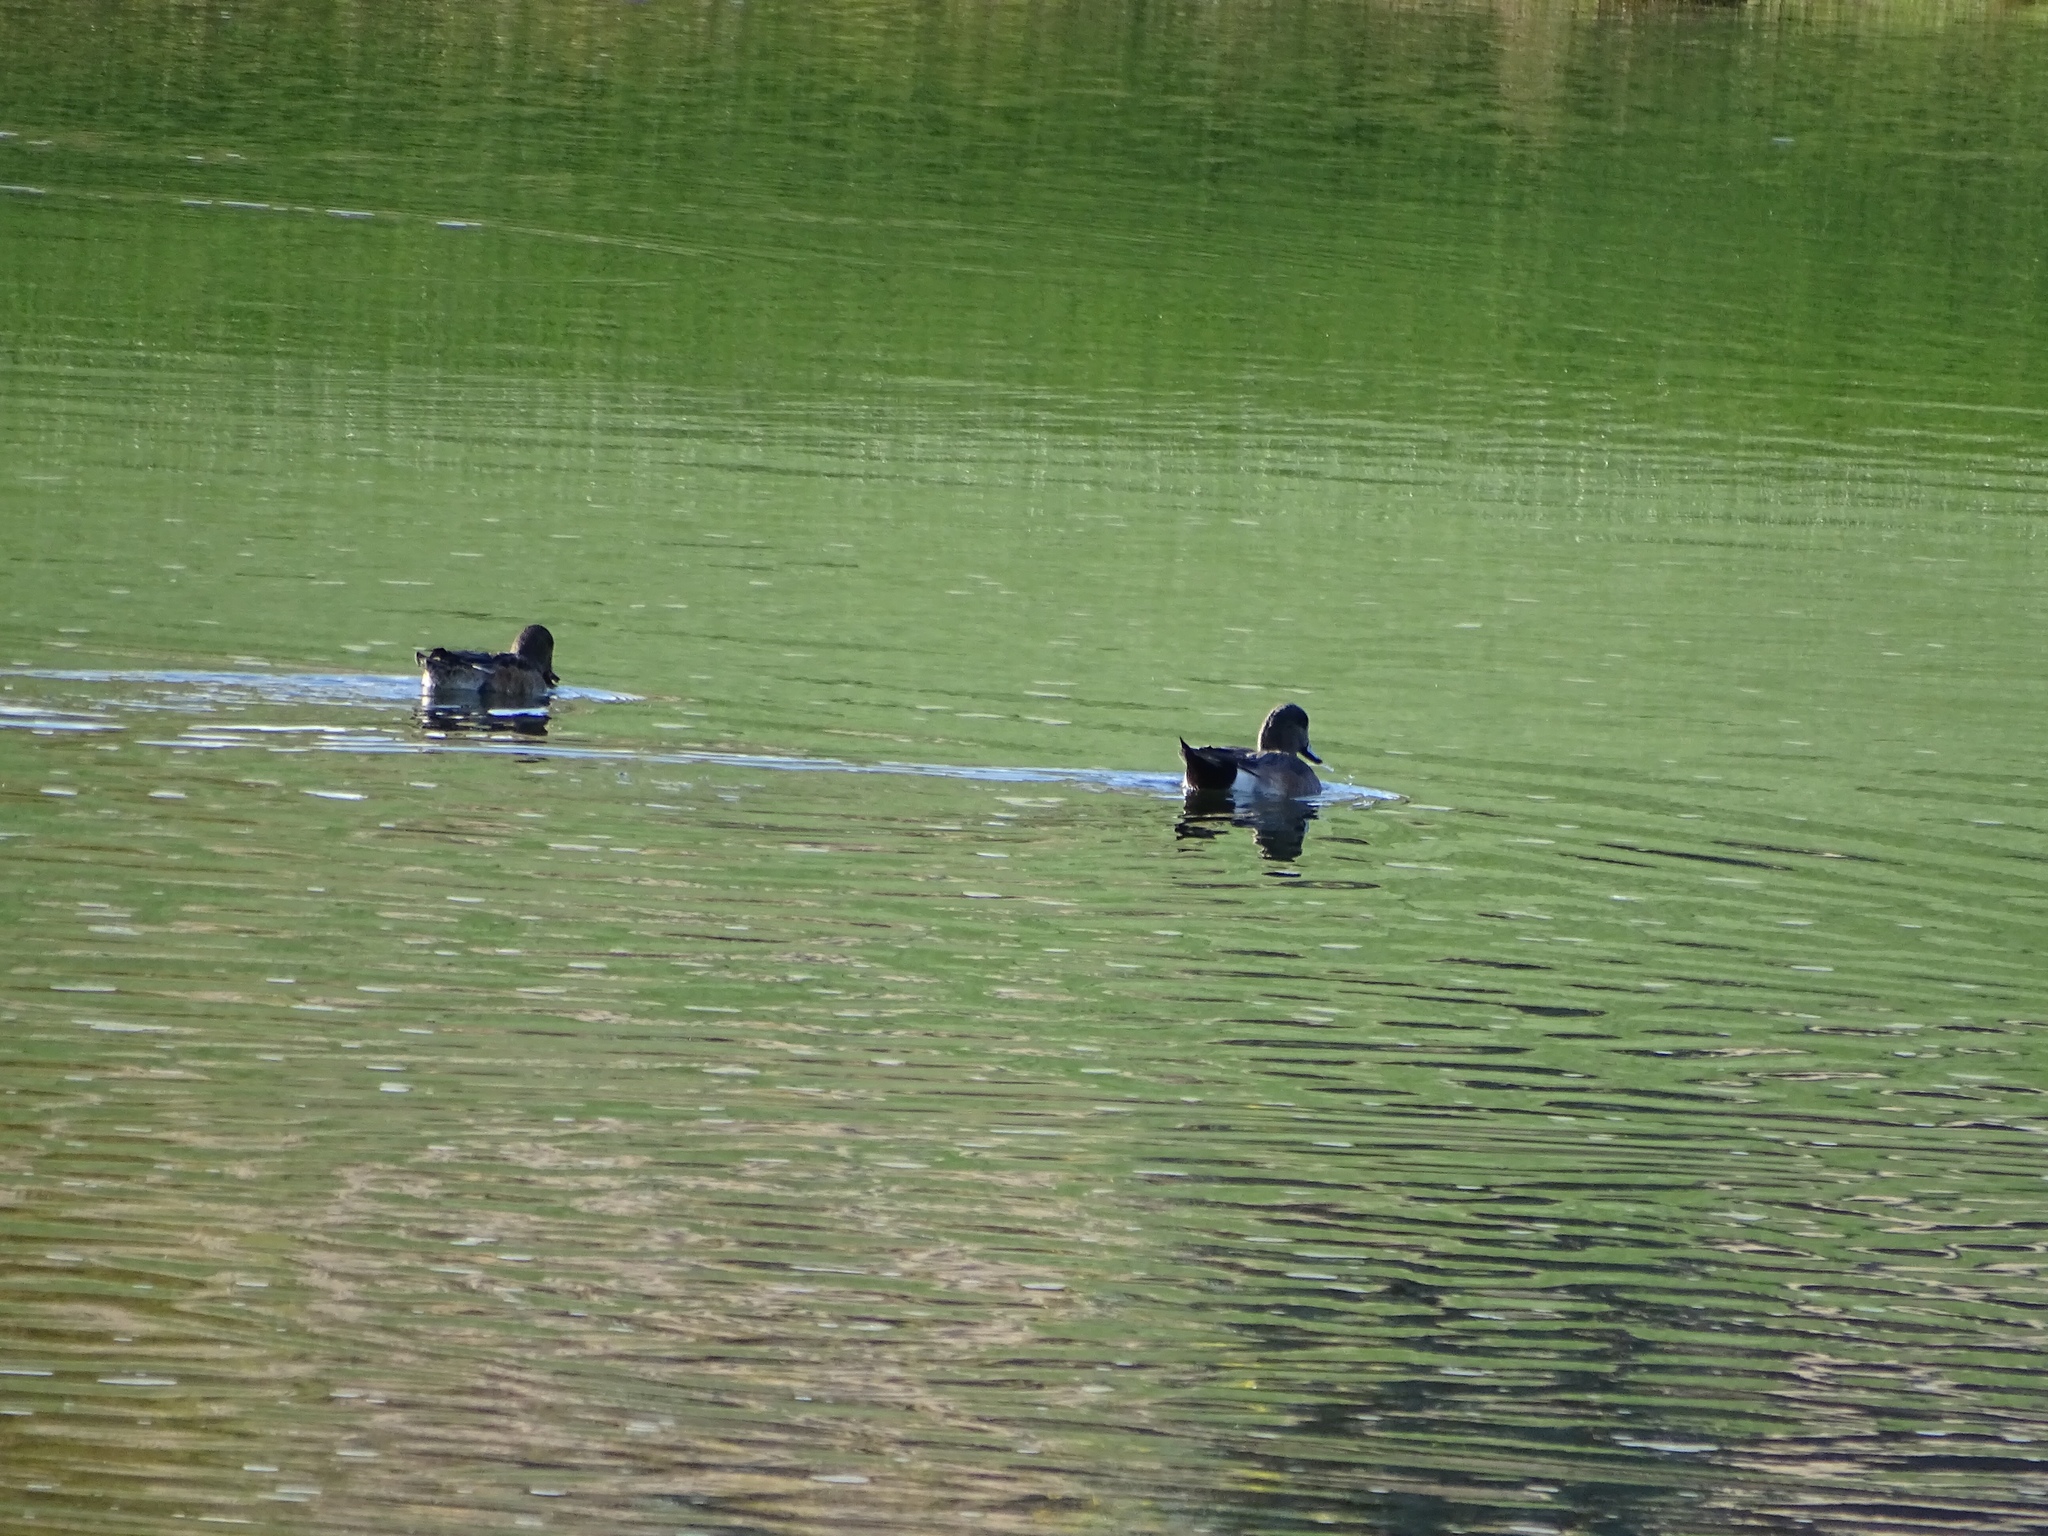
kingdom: Animalia
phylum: Chordata
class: Aves
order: Anseriformes
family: Anatidae
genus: Mareca
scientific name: Mareca americana
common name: American wigeon
